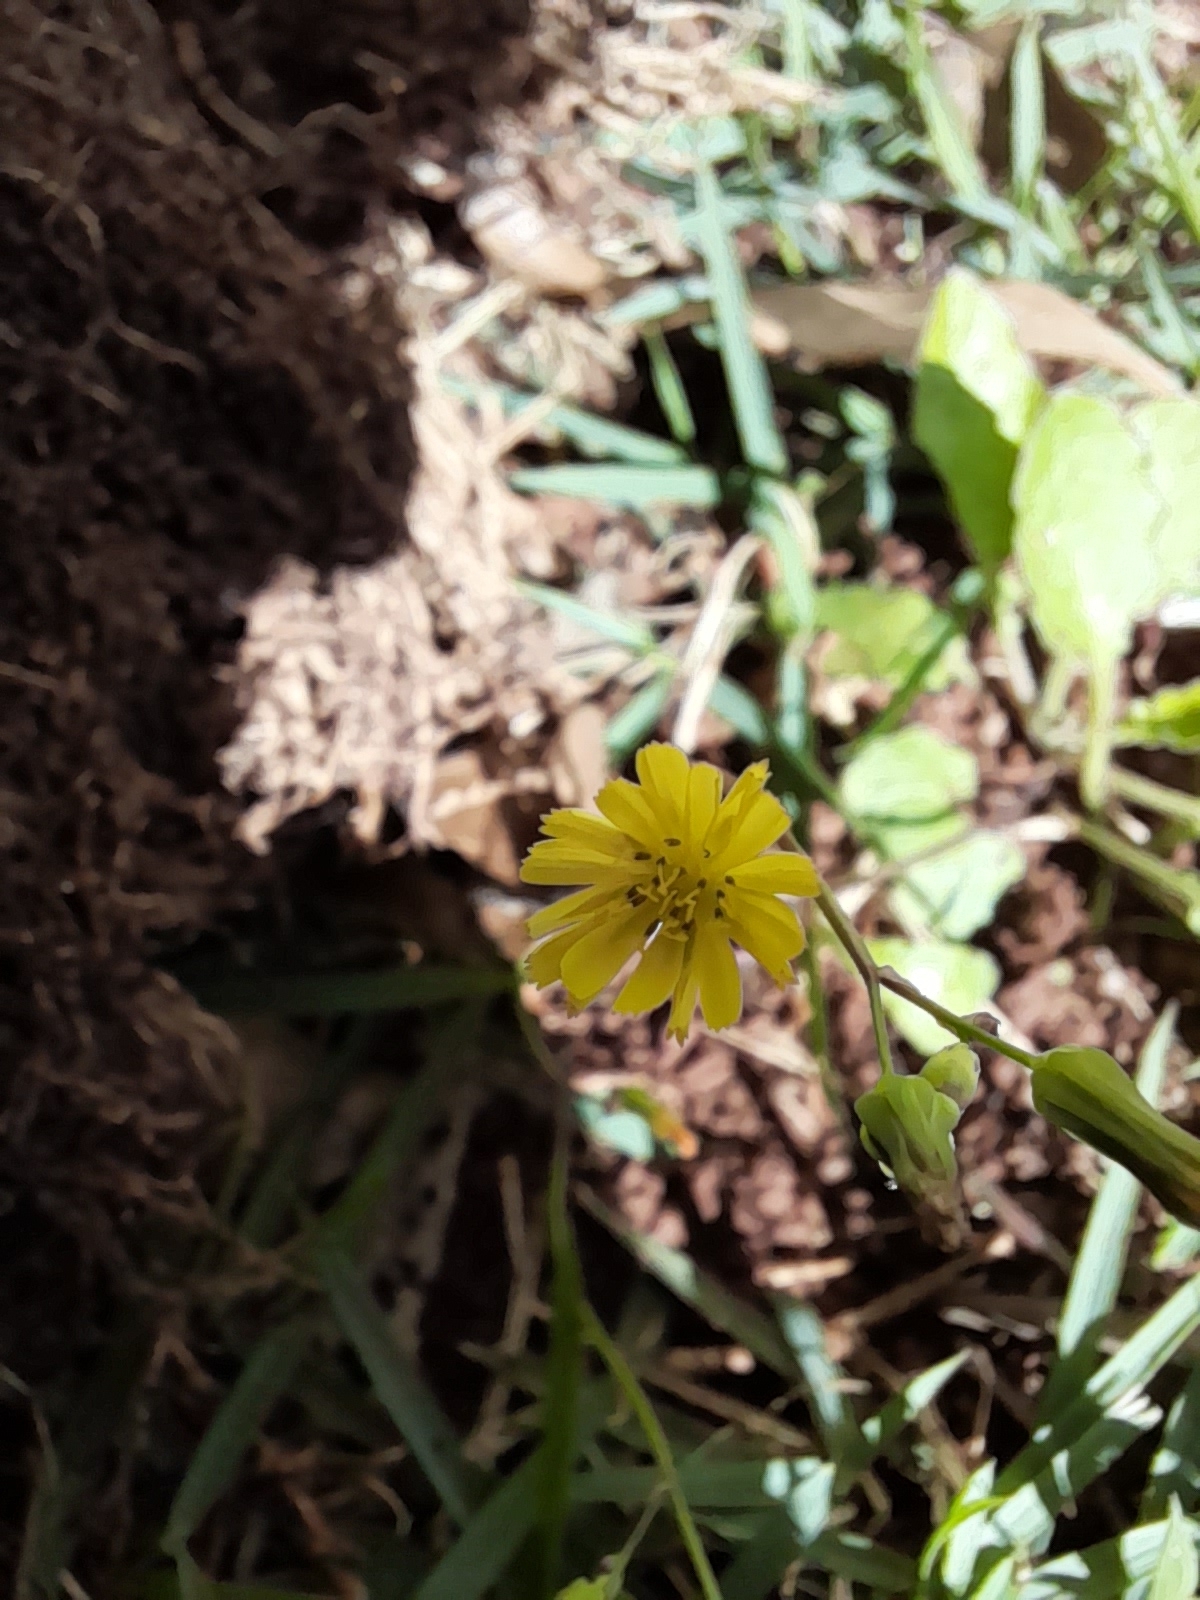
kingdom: Plantae
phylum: Tracheophyta
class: Magnoliopsida
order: Asterales
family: Asteraceae
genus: Youngia
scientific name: Youngia japonica
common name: Oriental false hawksbeard
